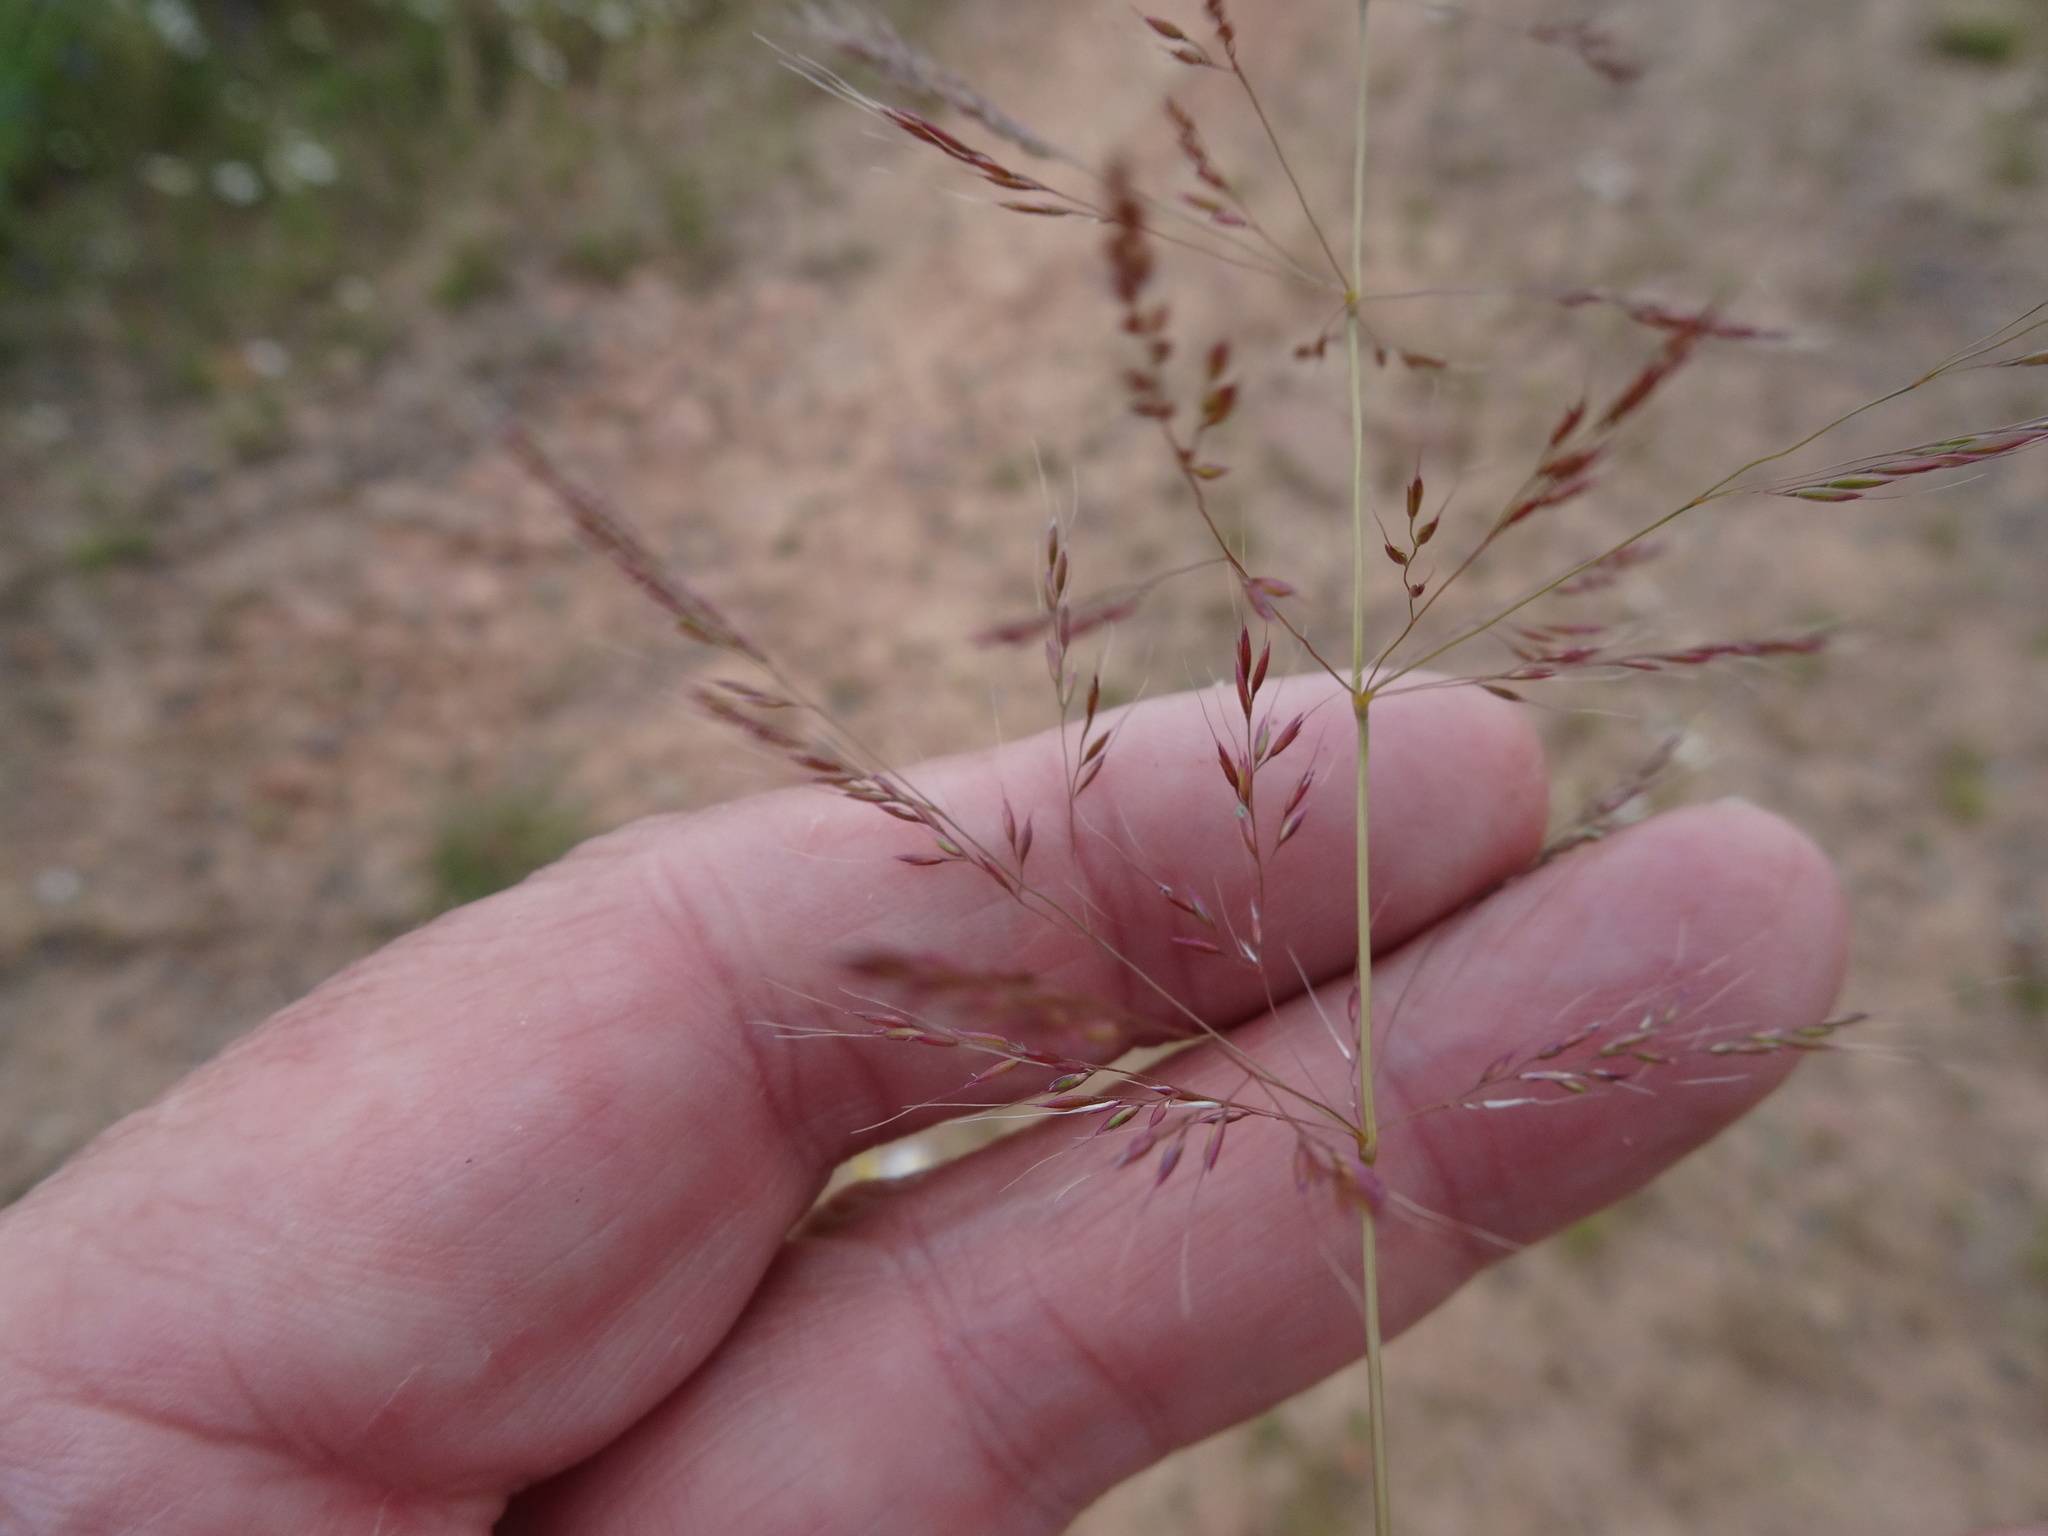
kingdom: Plantae
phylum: Tracheophyta
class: Liliopsida
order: Poales
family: Poaceae
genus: Apera
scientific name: Apera spica-venti
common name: Loose silky-bent
